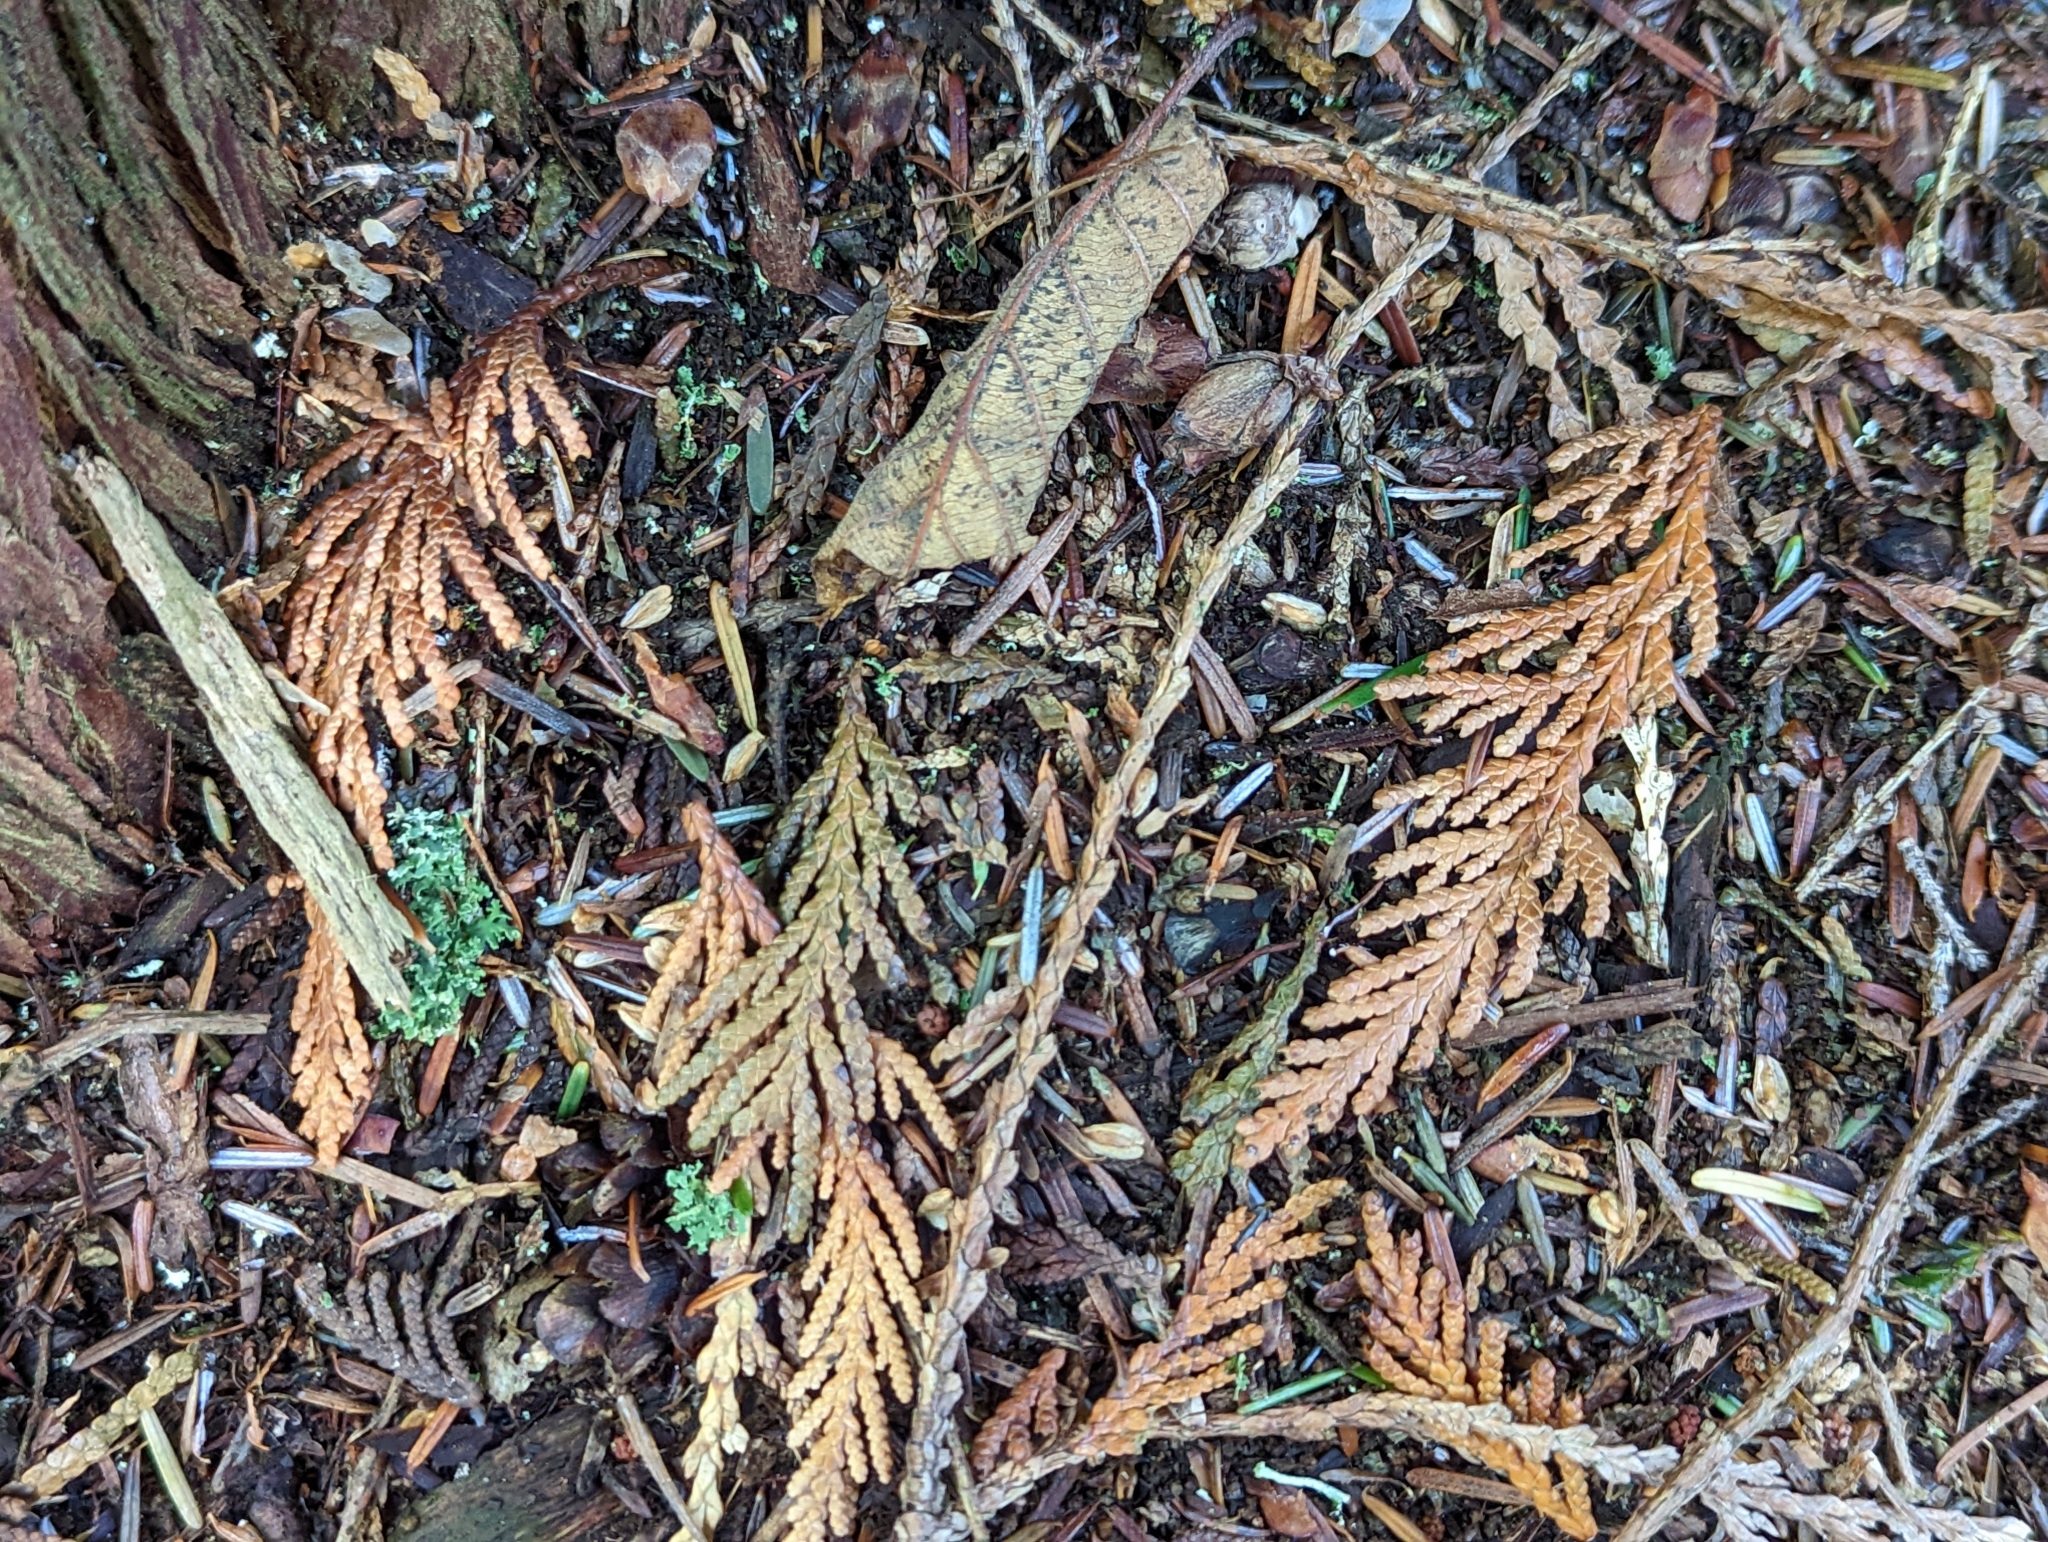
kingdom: Plantae
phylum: Tracheophyta
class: Pinopsida
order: Pinales
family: Cupressaceae
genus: Thuja
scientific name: Thuja plicata
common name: Western red-cedar
